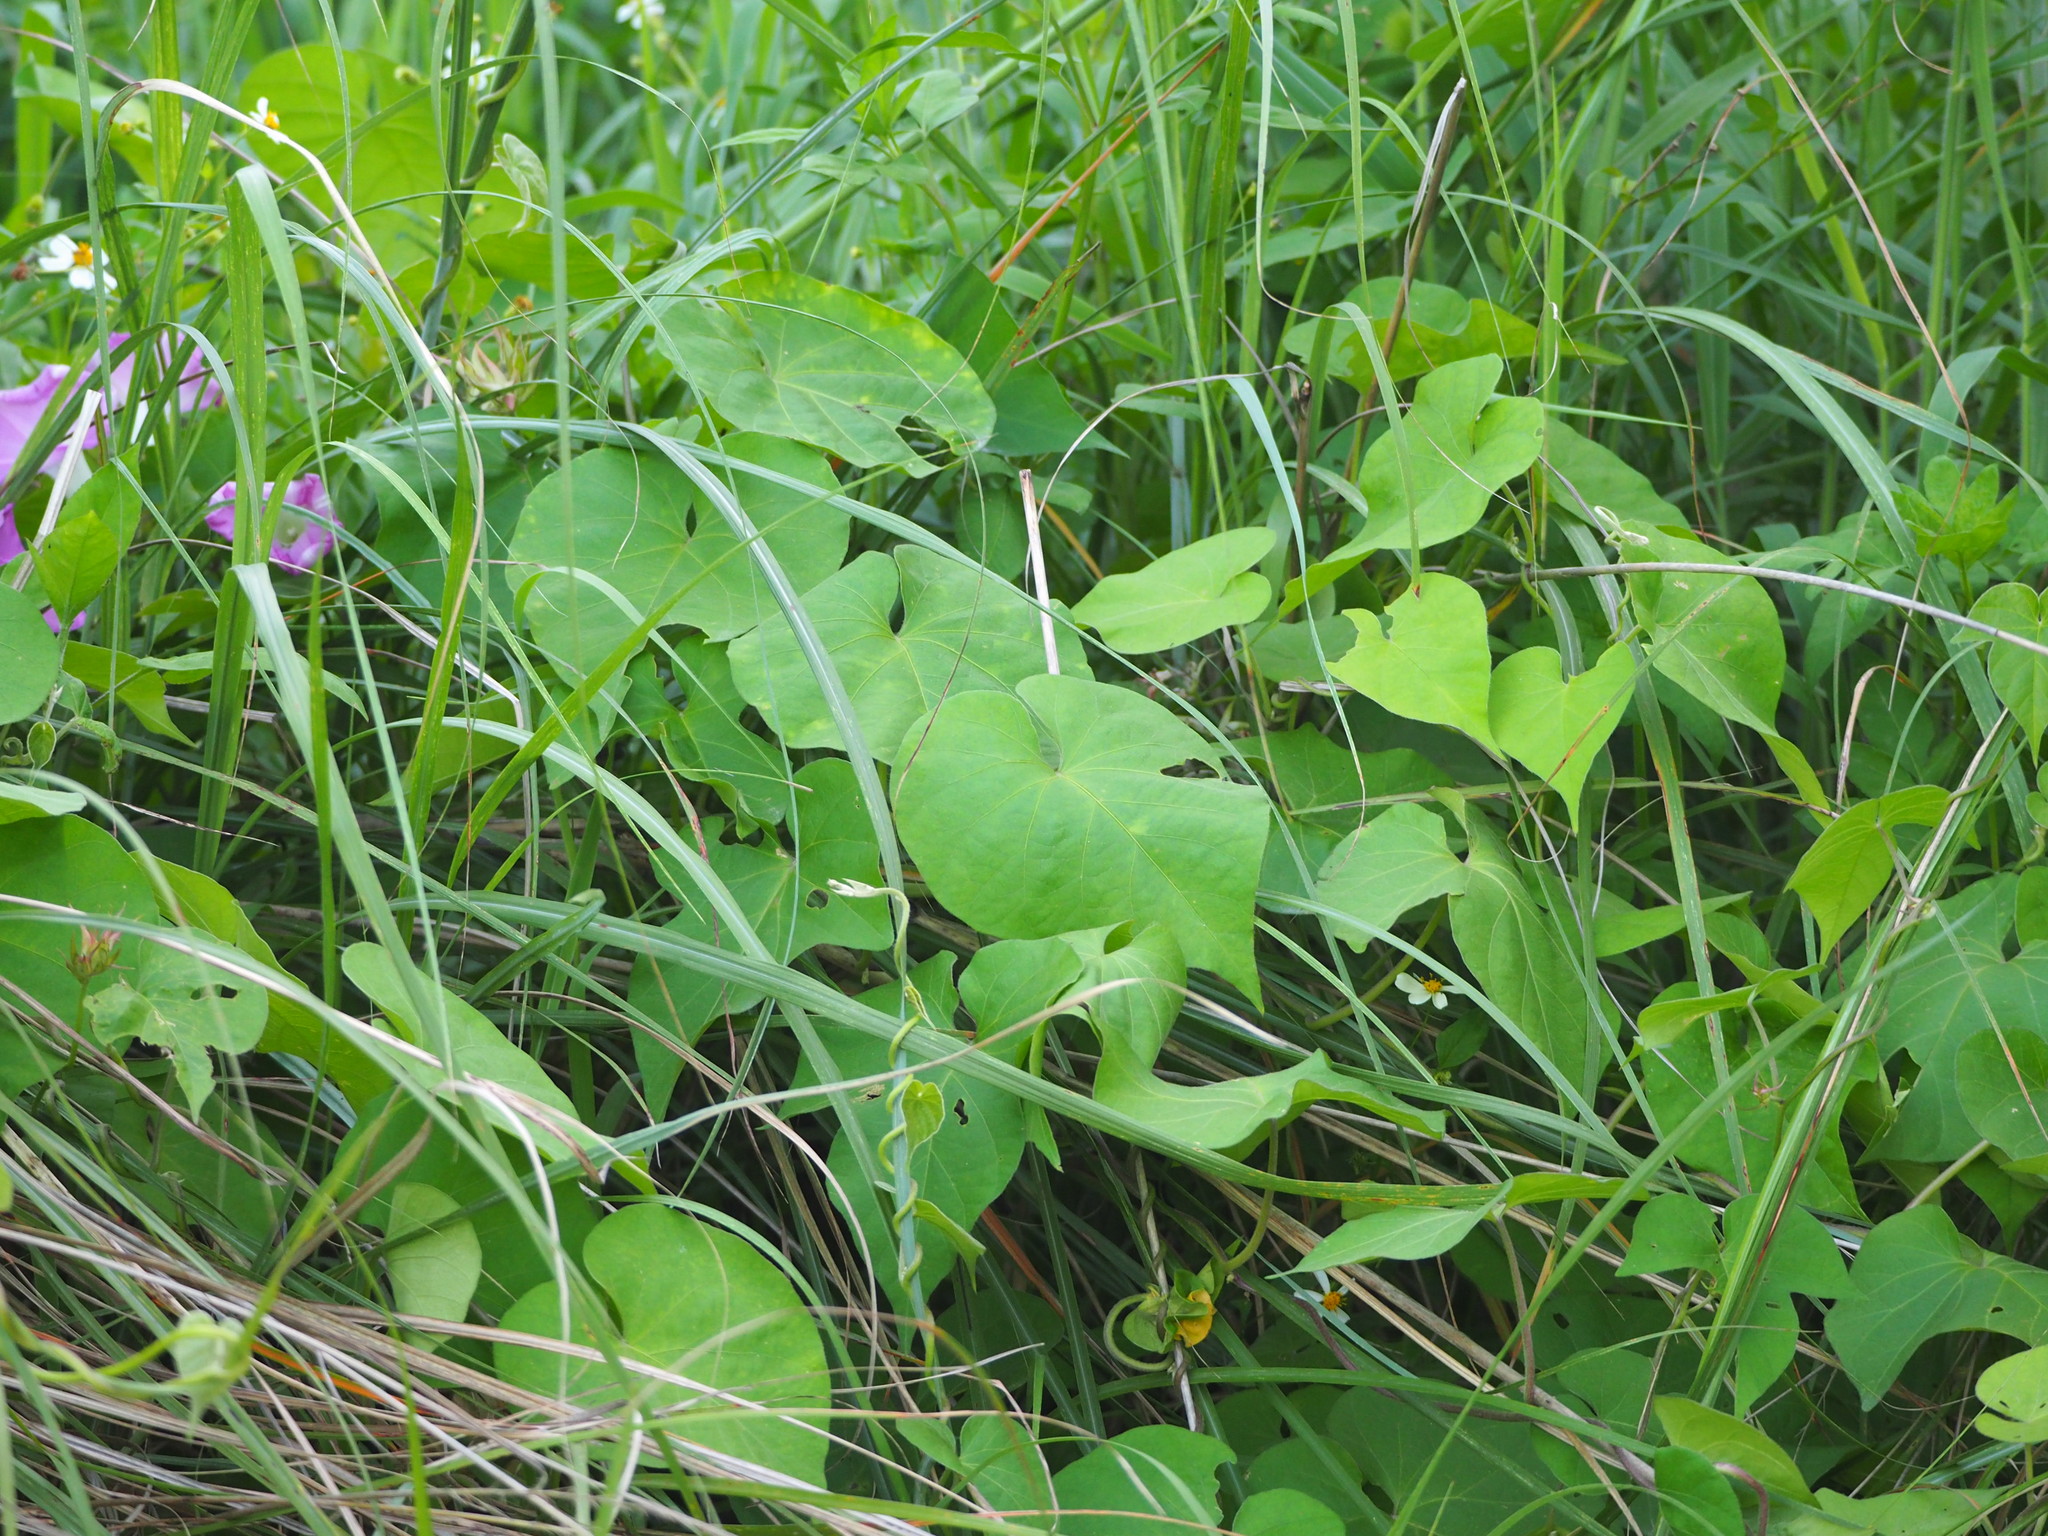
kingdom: Plantae
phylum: Tracheophyta
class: Magnoliopsida
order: Solanales
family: Convolvulaceae
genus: Ipomoea
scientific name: Ipomoea indica
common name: Blue dawnflower
